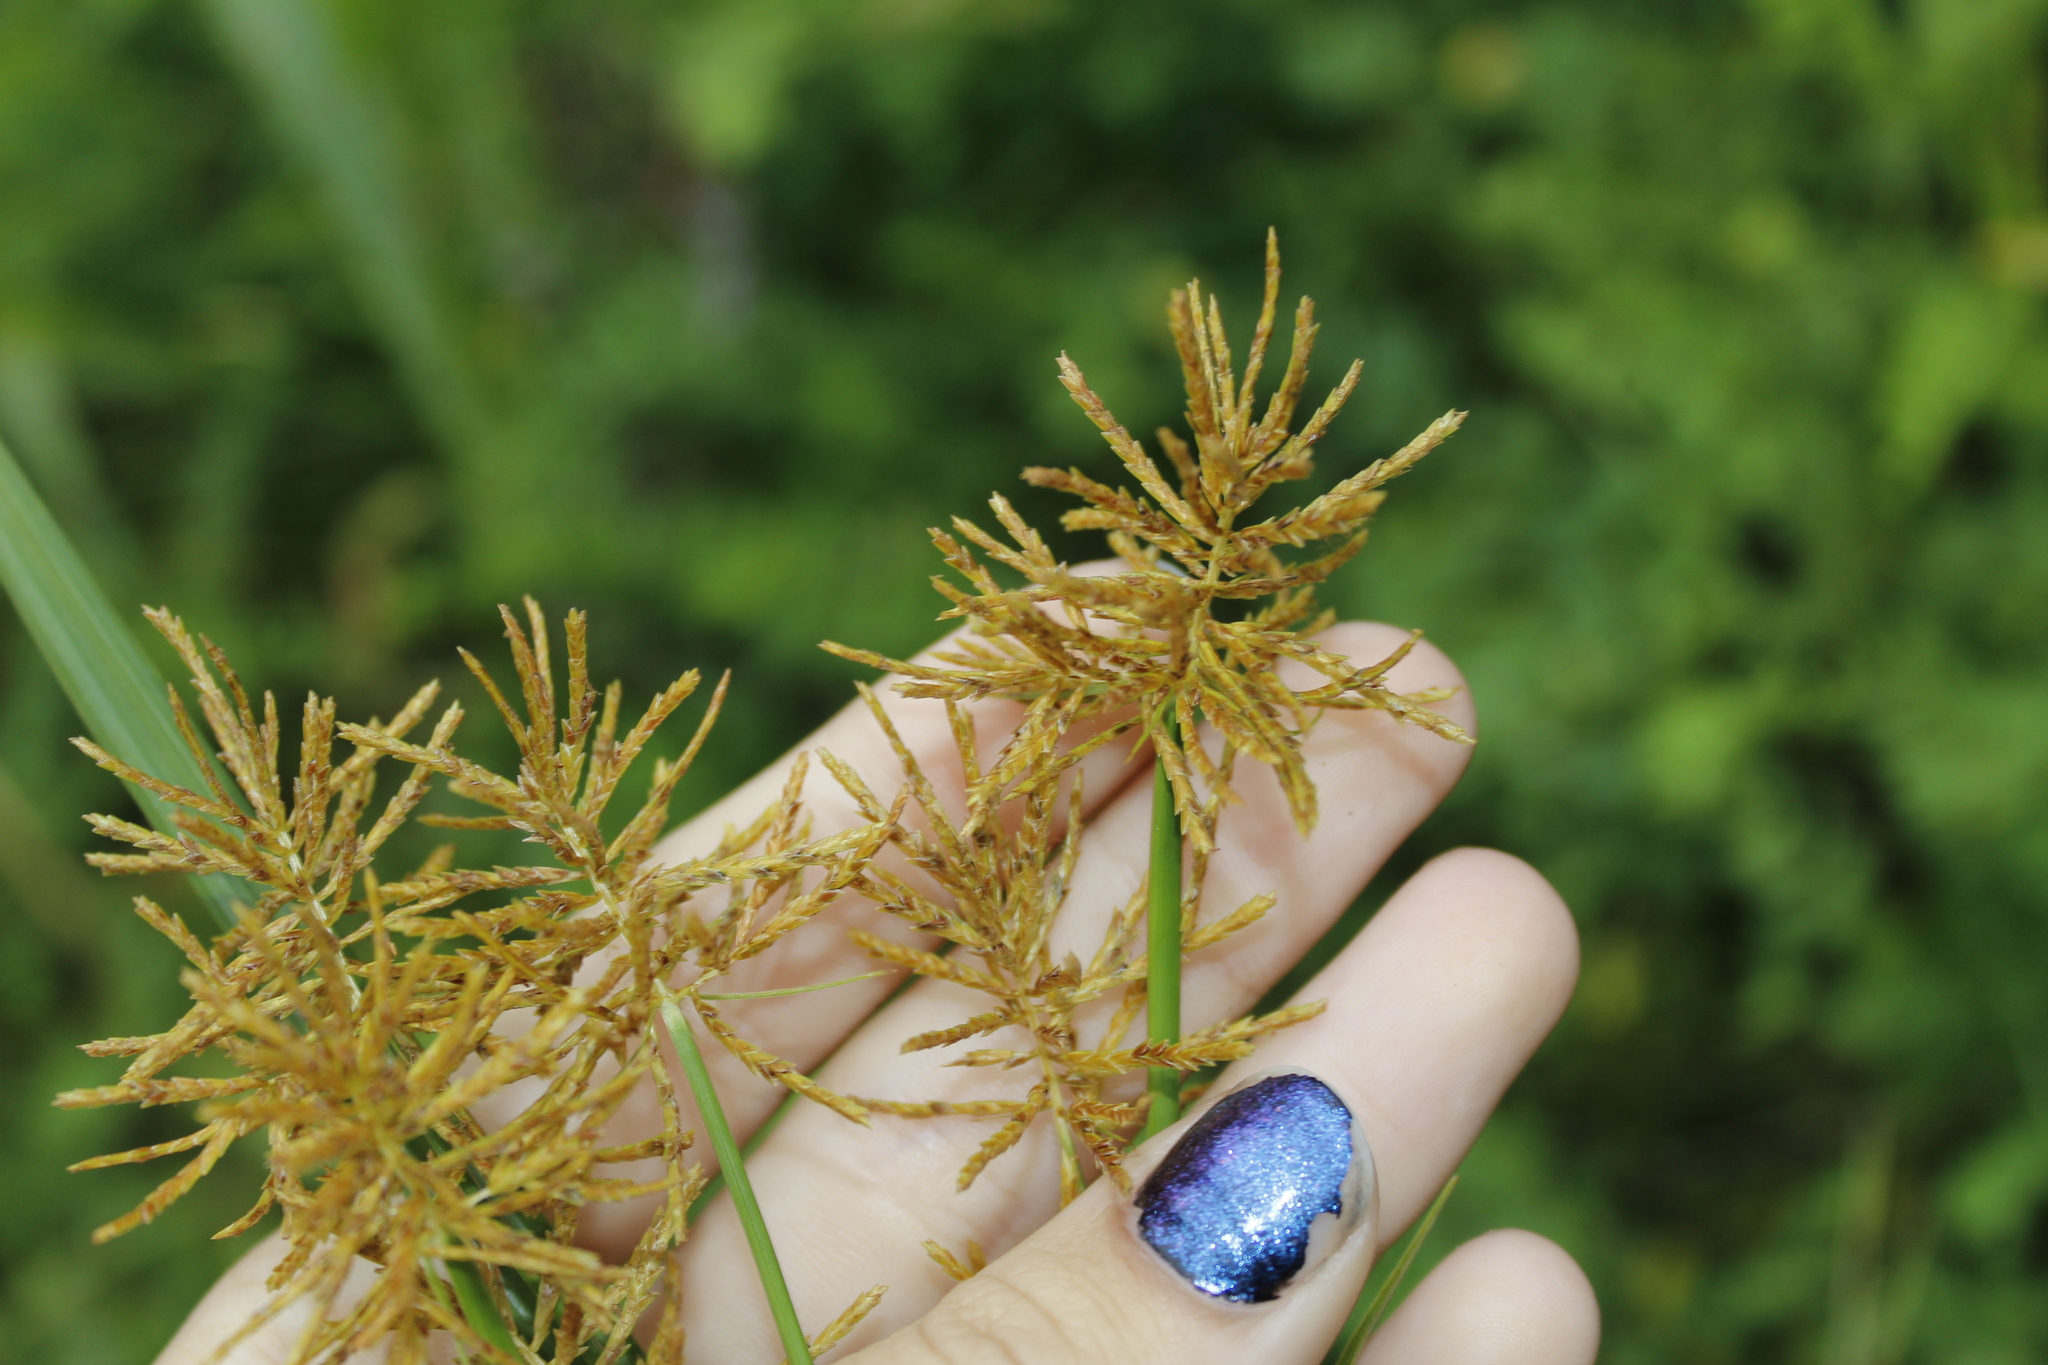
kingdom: Plantae
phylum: Tracheophyta
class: Liliopsida
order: Poales
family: Cyperaceae
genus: Cyperus
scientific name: Cyperus esculentus
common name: Yellow nutsedge
